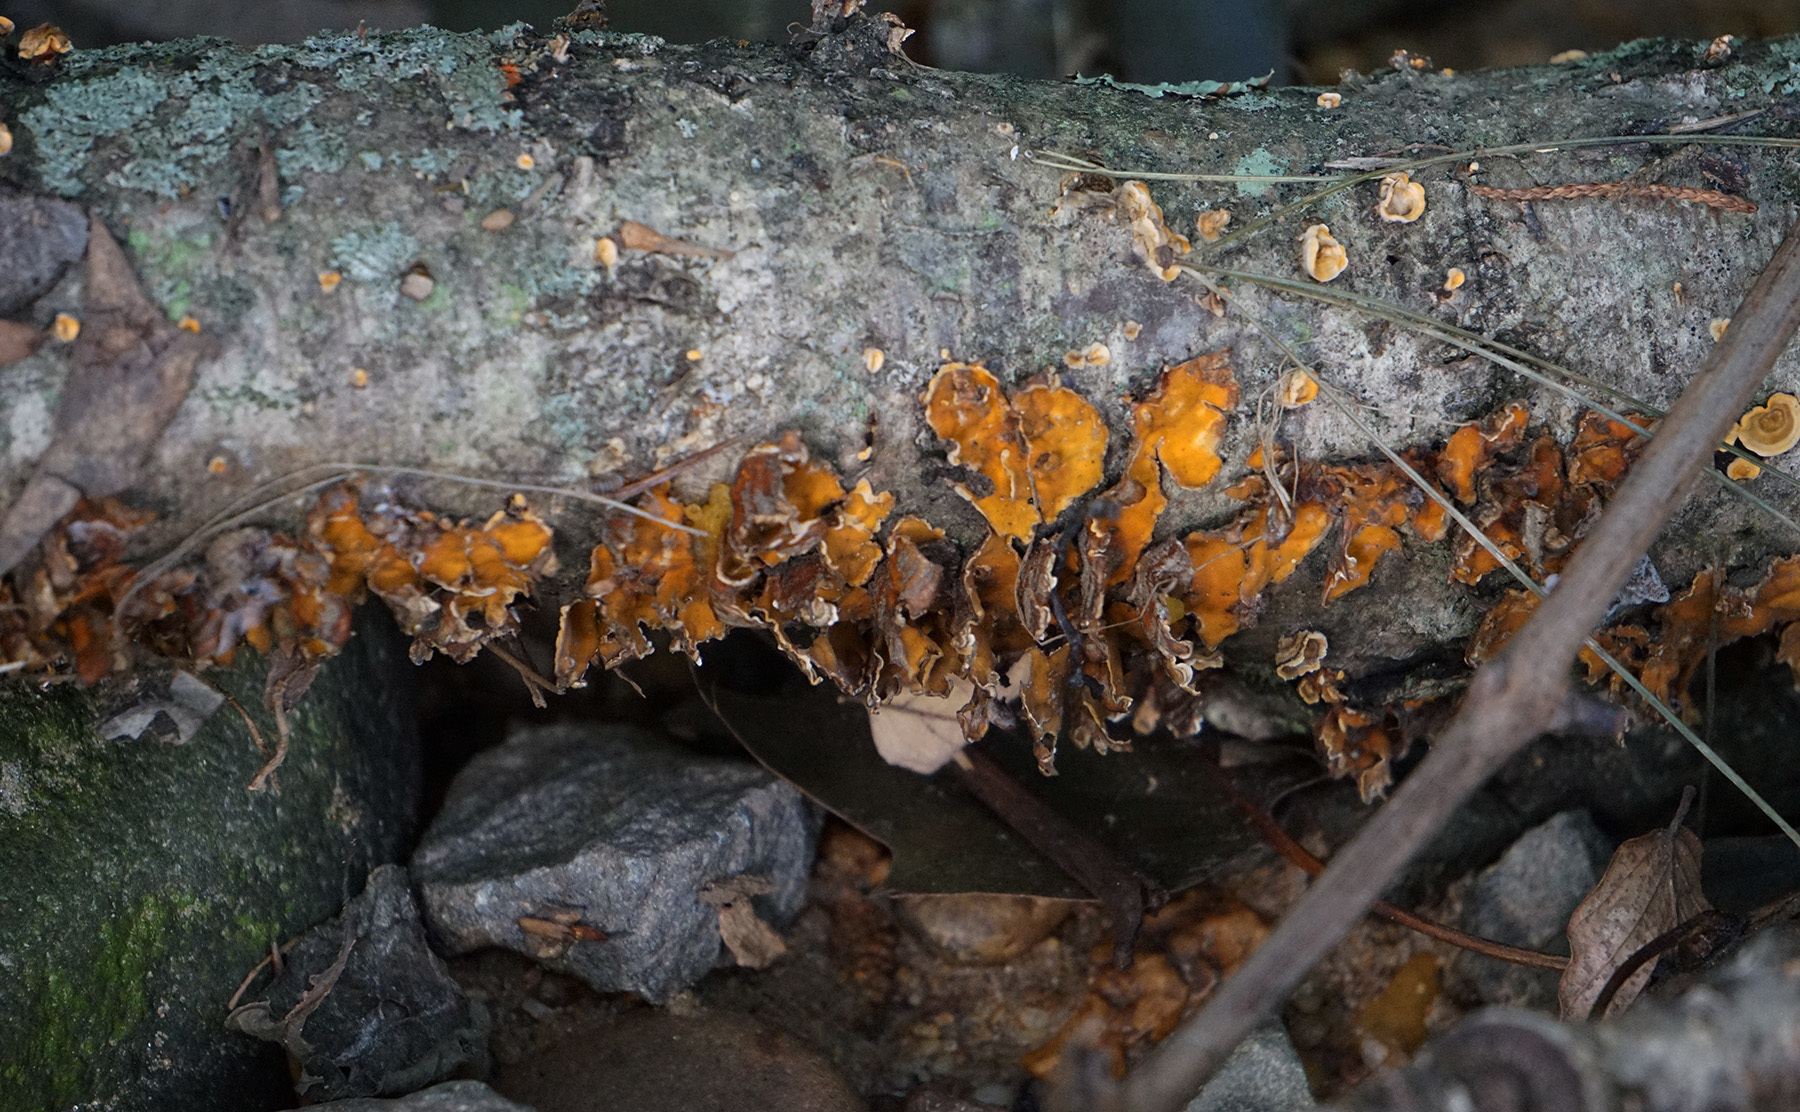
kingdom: Fungi
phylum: Basidiomycota
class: Agaricomycetes
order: Russulales
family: Stereaceae
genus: Stereum
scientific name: Stereum complicatum
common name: Crowded parchment
